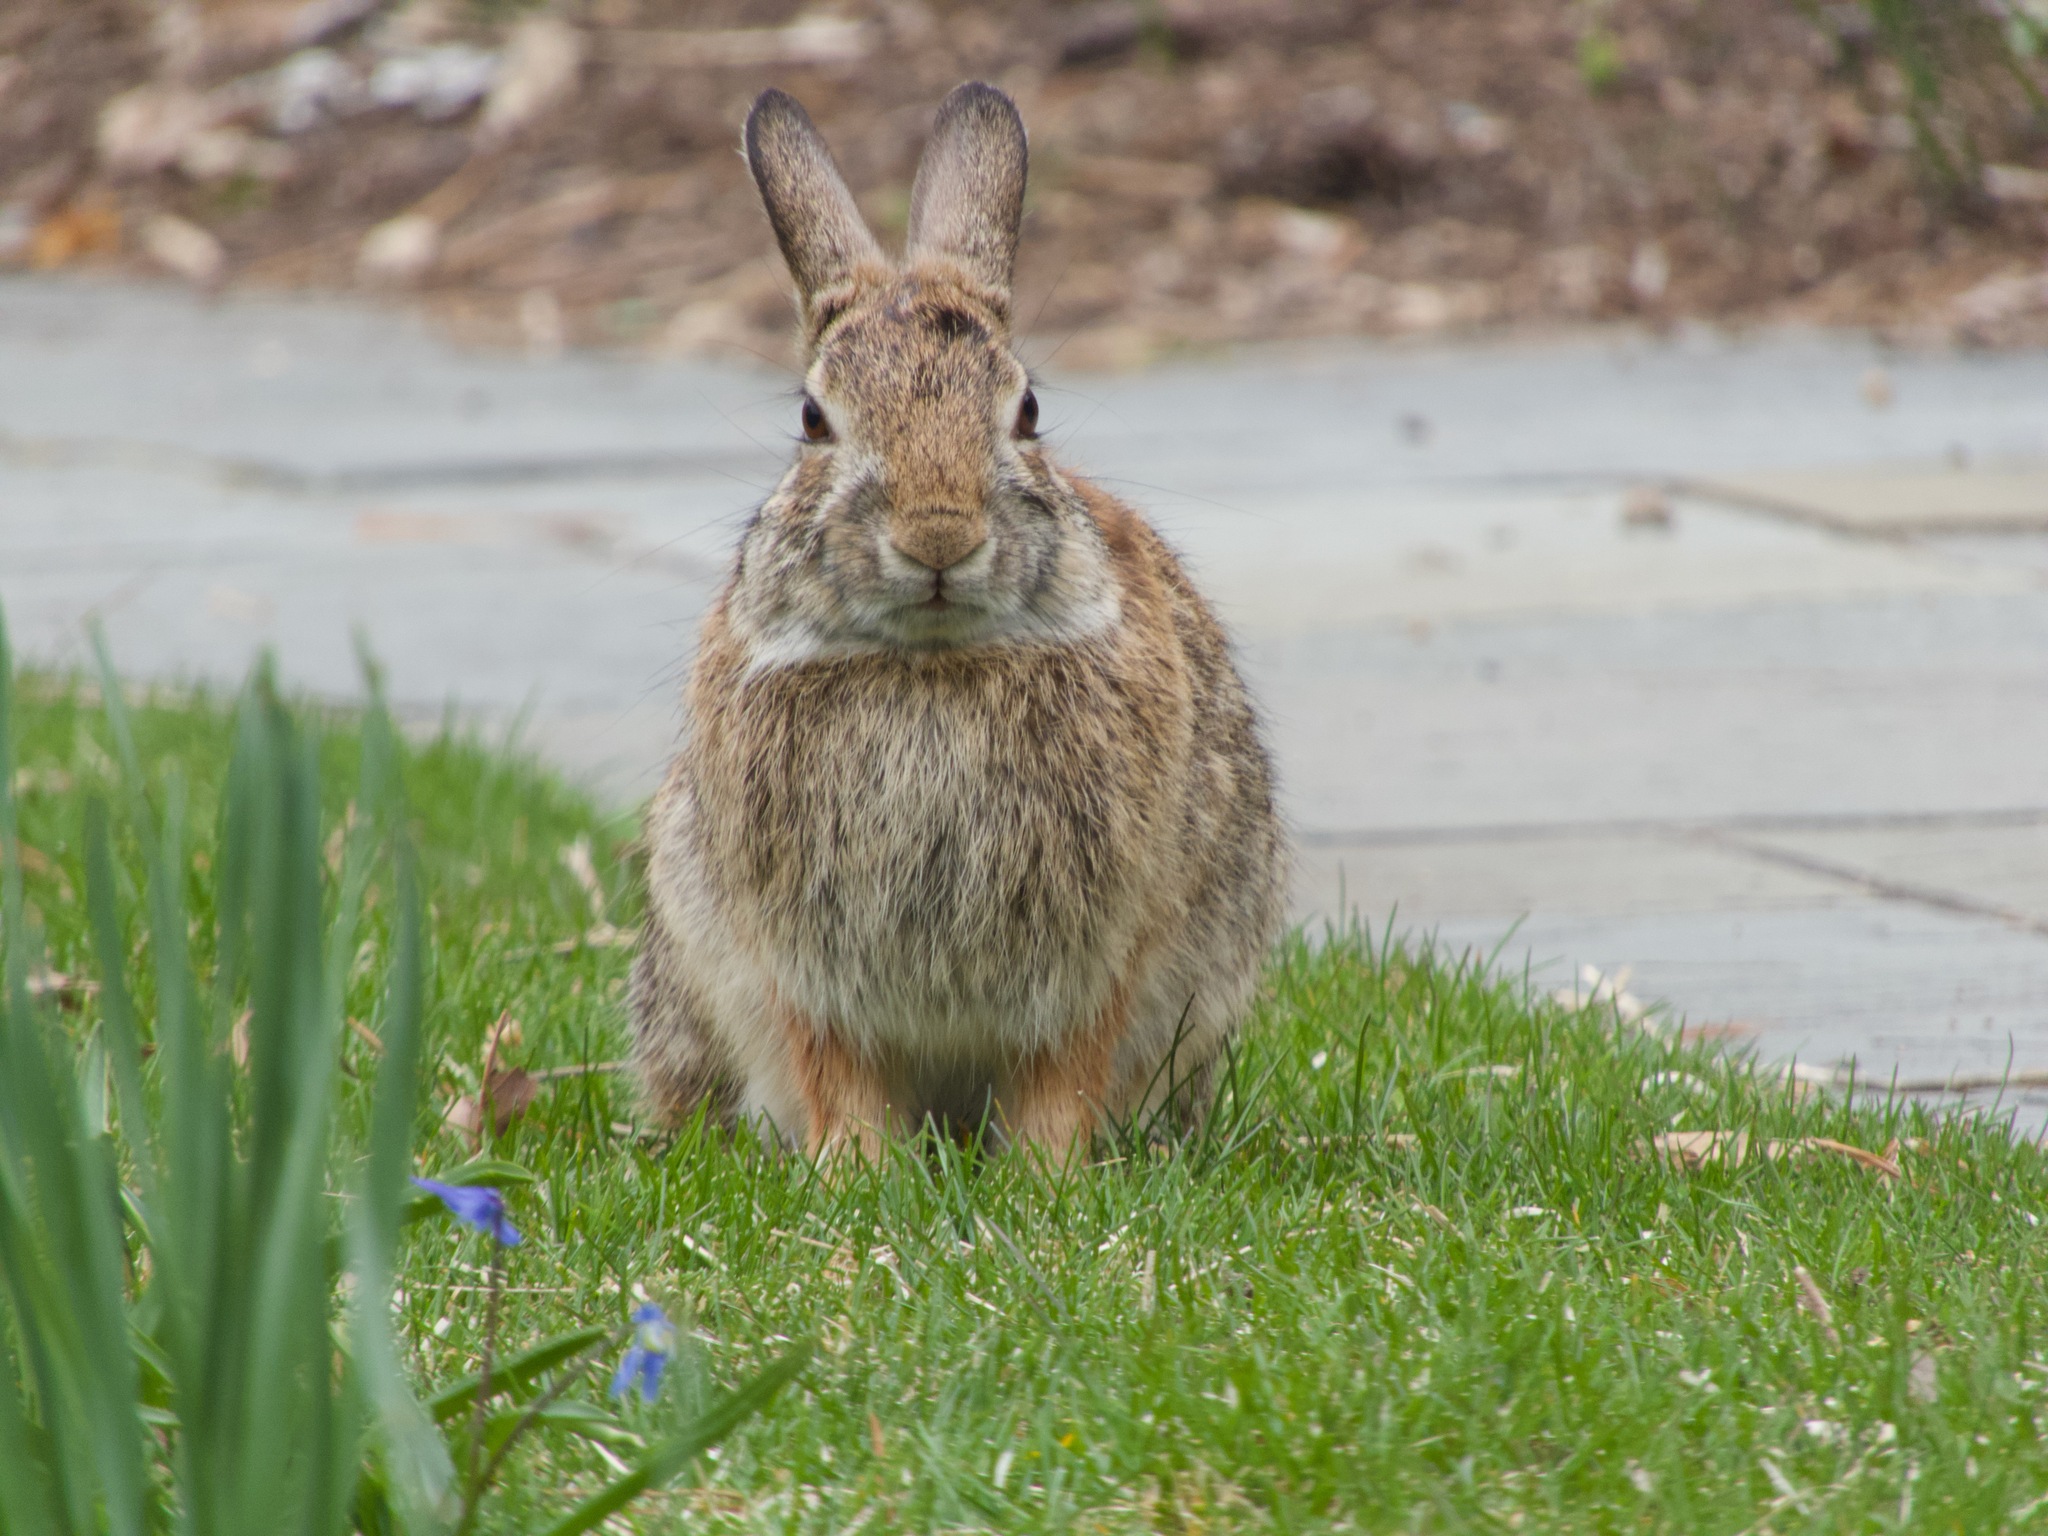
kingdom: Animalia
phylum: Chordata
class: Mammalia
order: Lagomorpha
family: Leporidae
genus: Sylvilagus
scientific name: Sylvilagus floridanus
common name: Eastern cottontail
